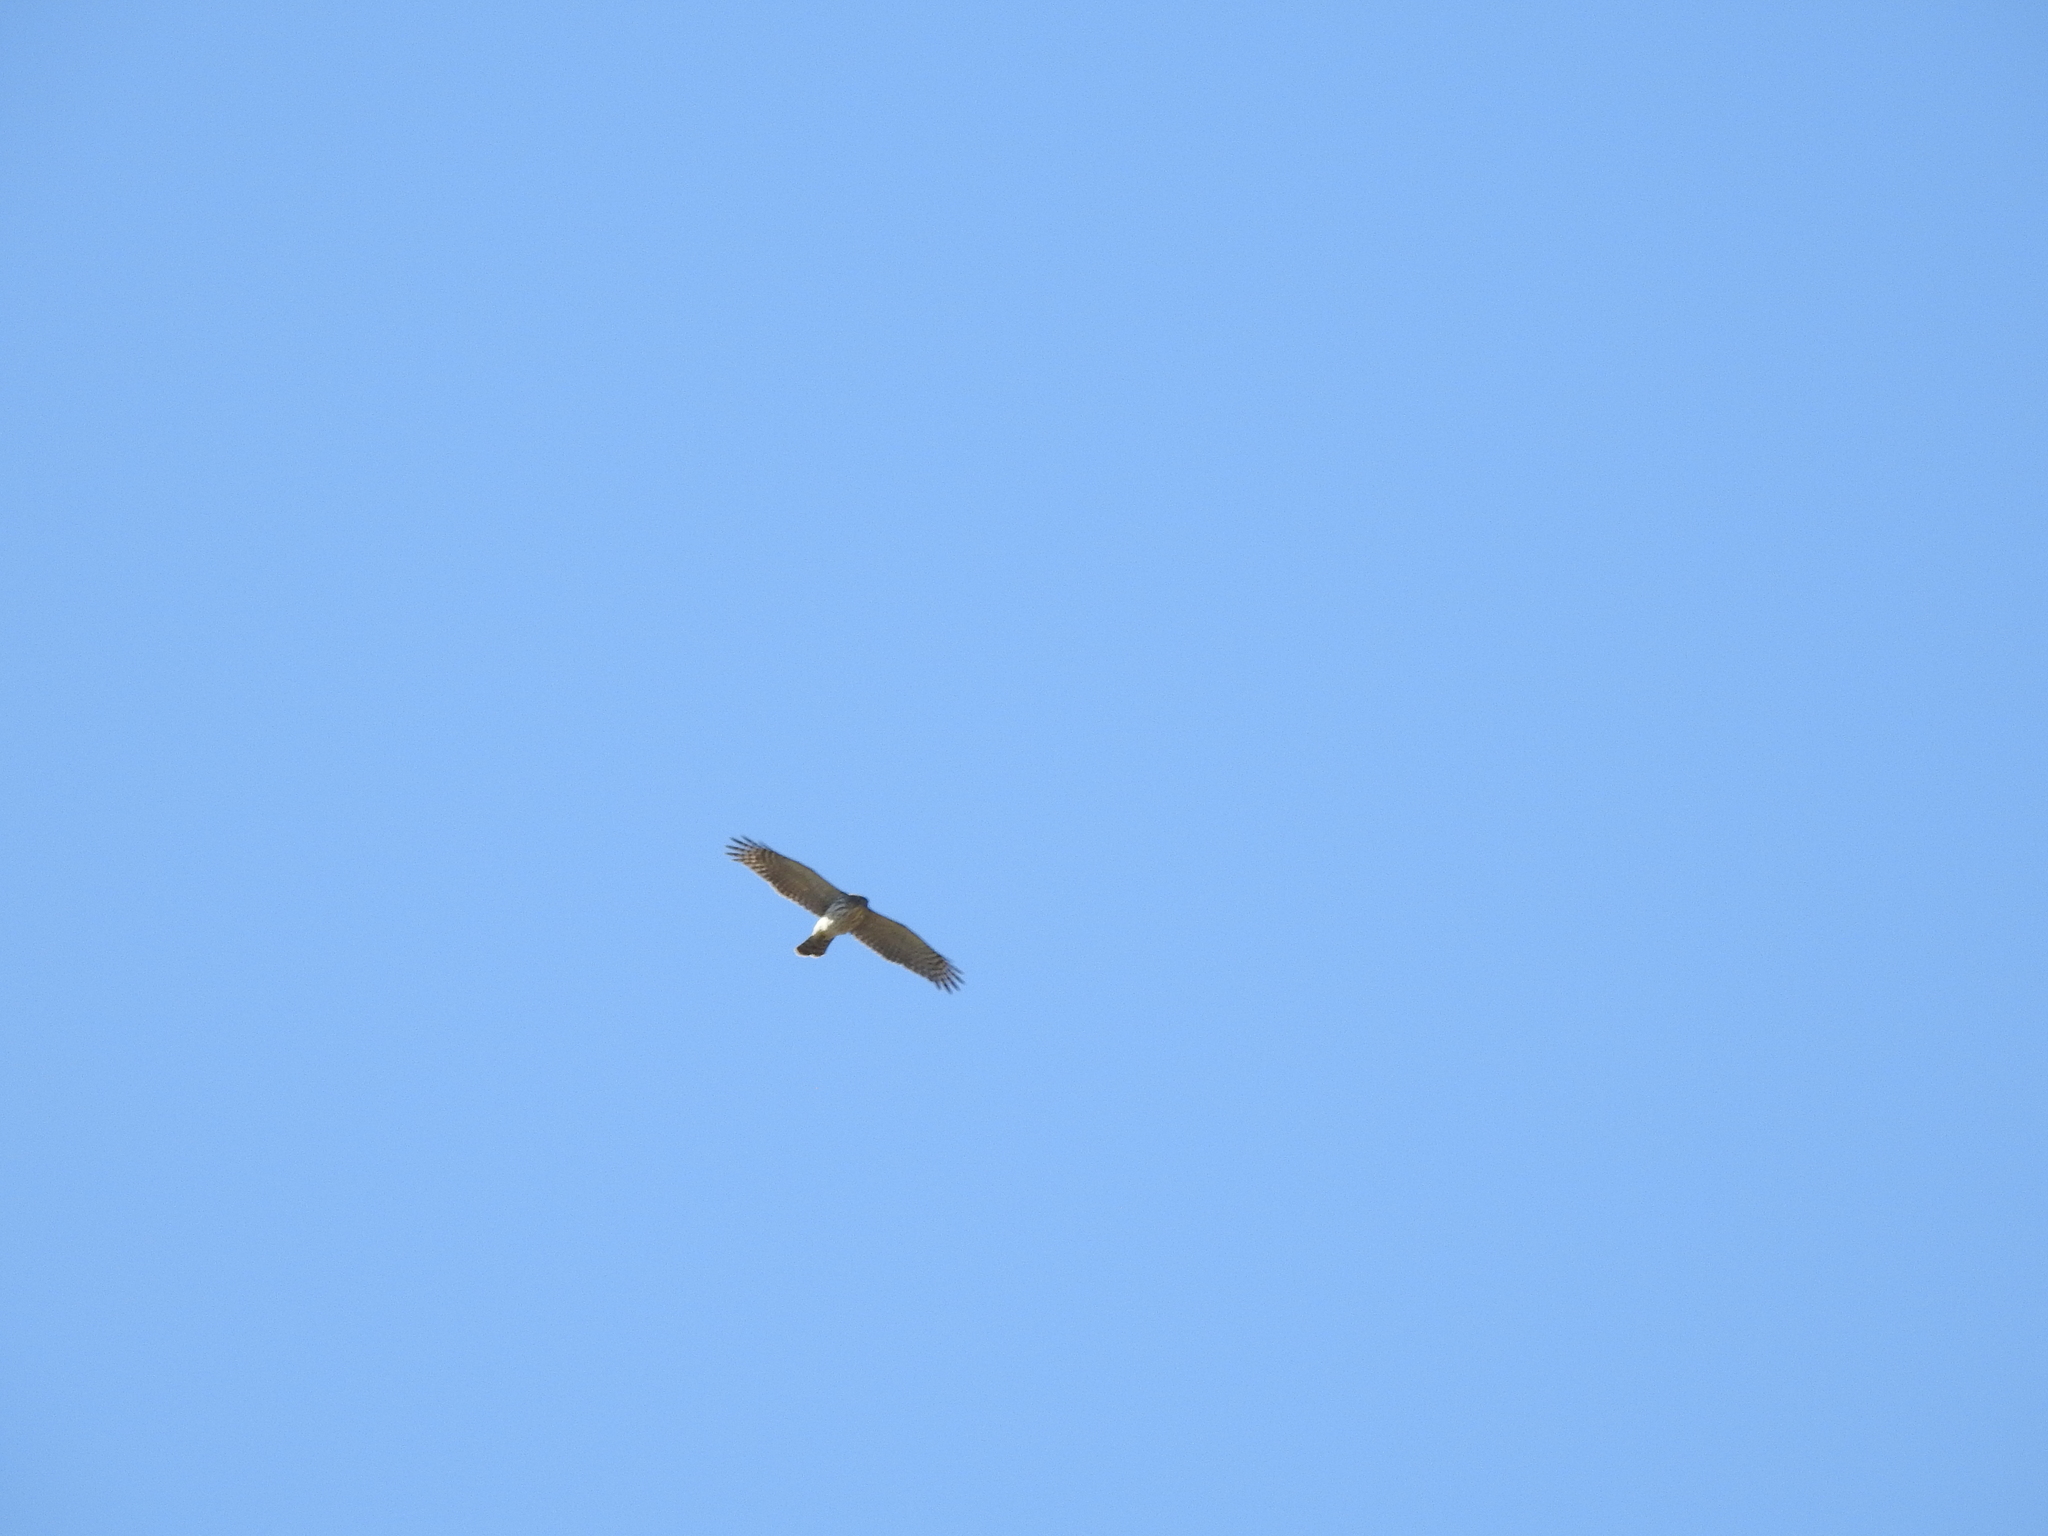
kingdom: Animalia
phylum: Chordata
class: Aves
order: Accipitriformes
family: Accipitridae
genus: Accipiter
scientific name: Accipiter cooperii
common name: Cooper's hawk
